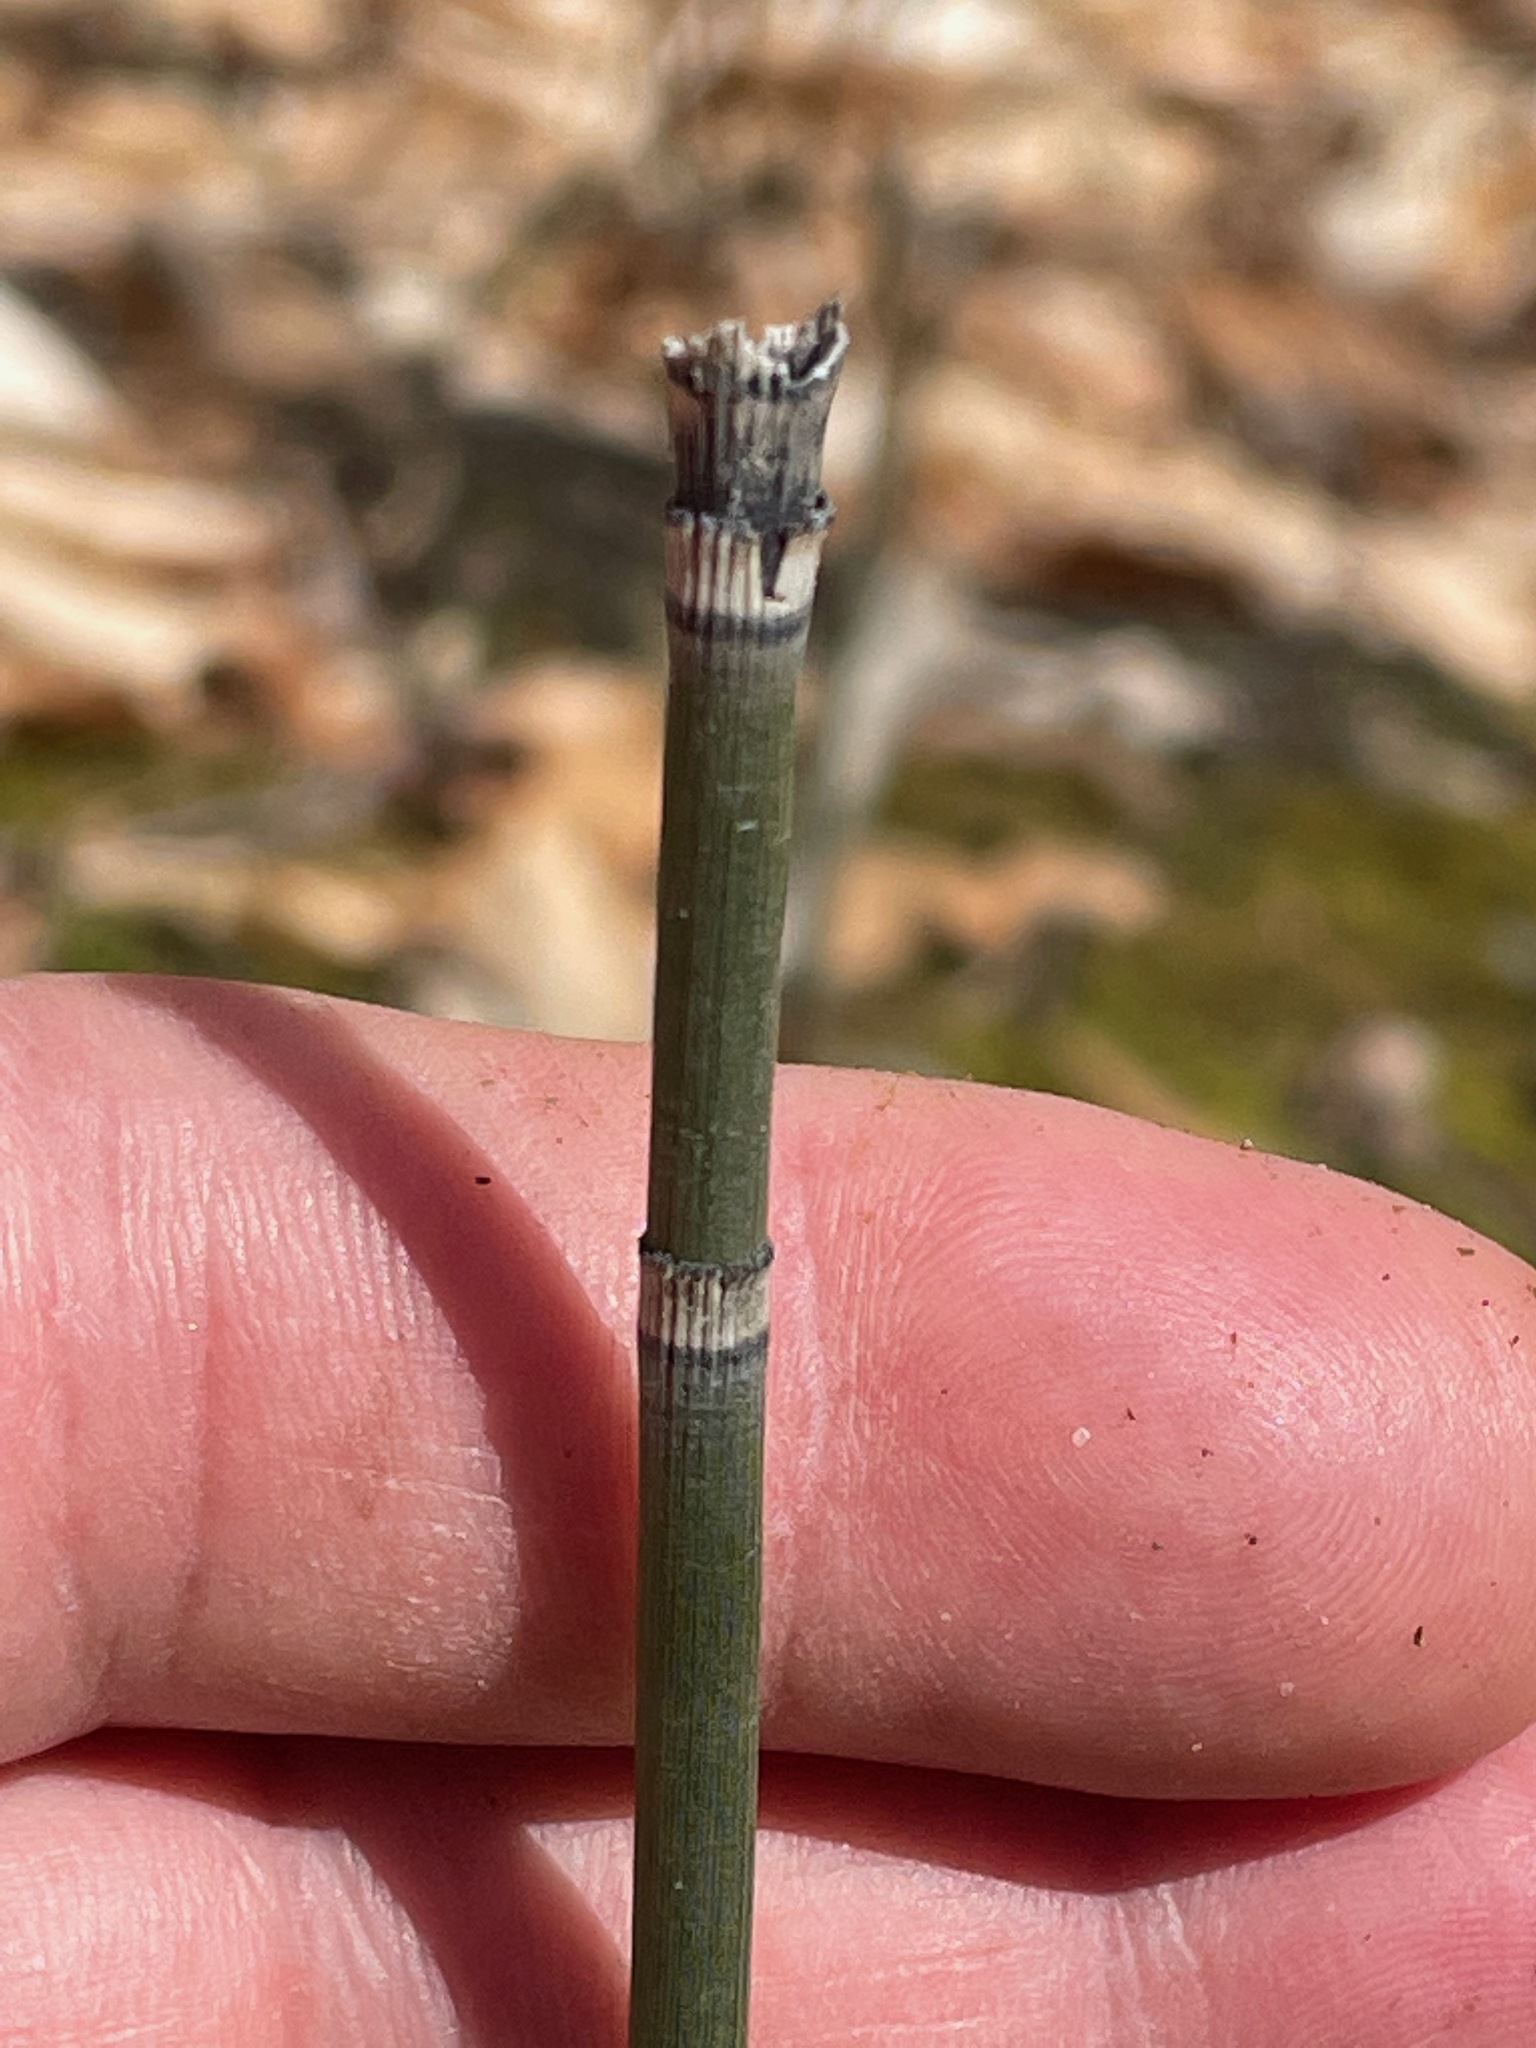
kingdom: Plantae
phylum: Tracheophyta
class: Polypodiopsida
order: Equisetales
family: Equisetaceae
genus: Equisetum
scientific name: Equisetum hyemale
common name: Rough horsetail
